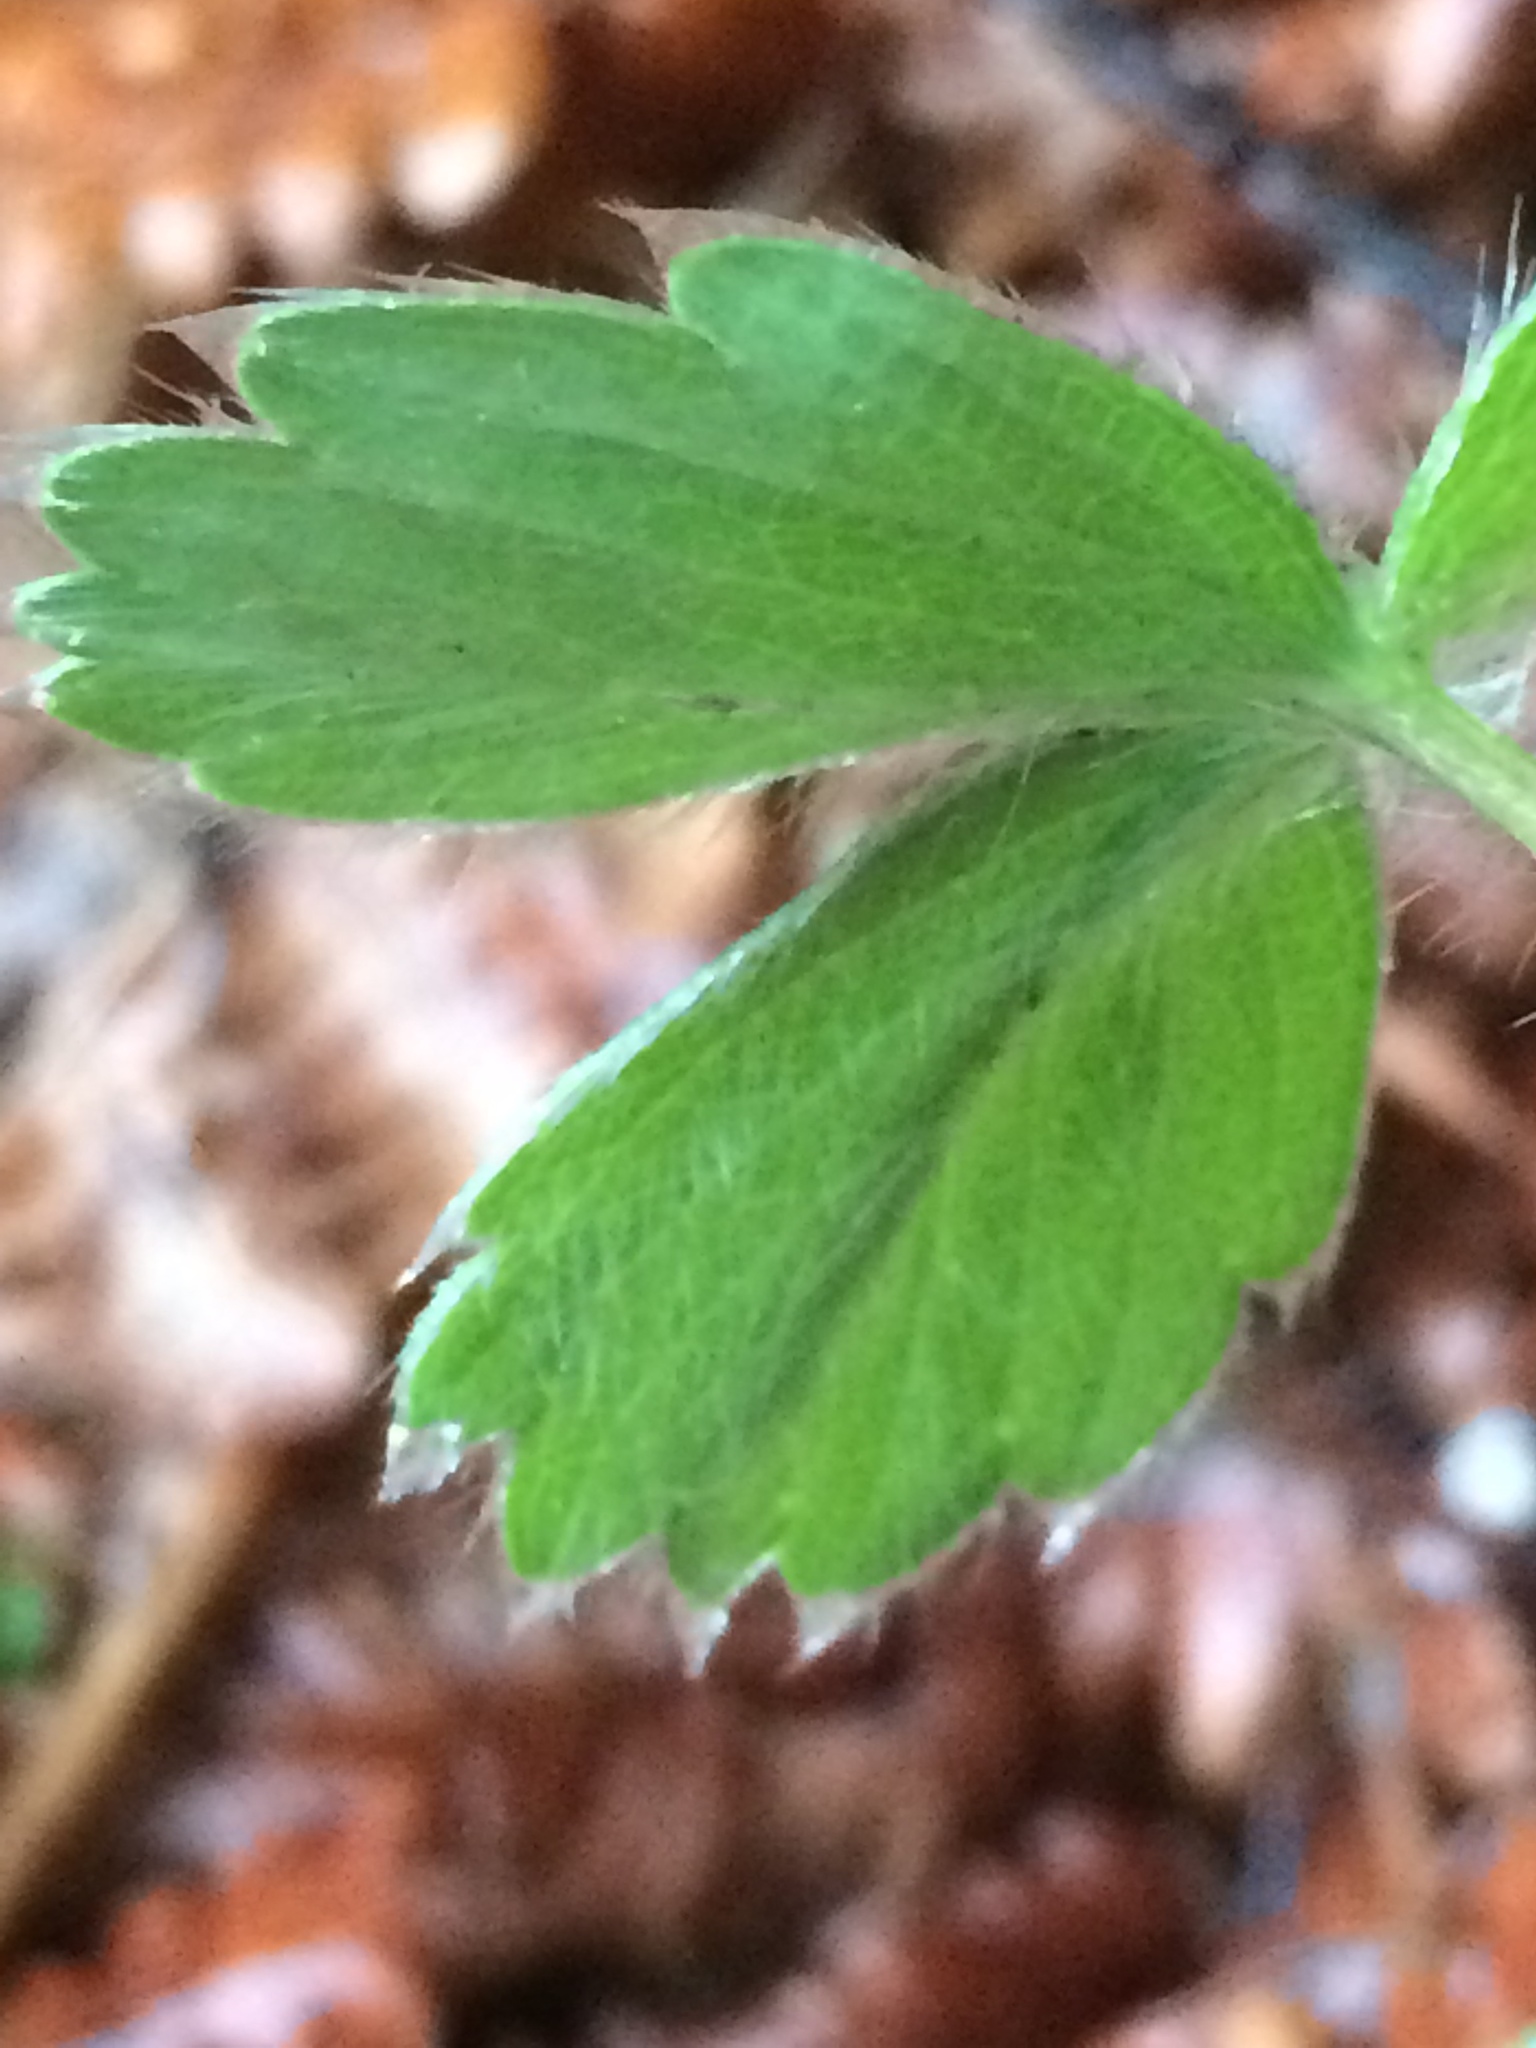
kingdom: Plantae
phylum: Tracheophyta
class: Magnoliopsida
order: Rosales
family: Rosaceae
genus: Fragaria
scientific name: Fragaria virginiana
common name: Thickleaved wild strawberry
